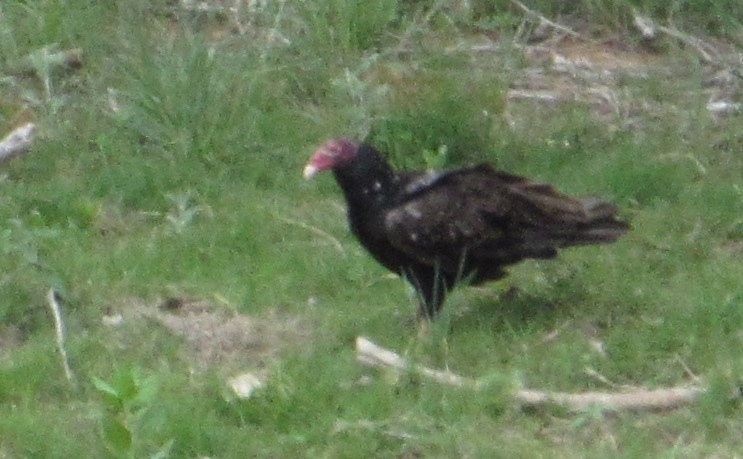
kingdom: Animalia
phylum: Chordata
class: Aves
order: Accipitriformes
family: Cathartidae
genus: Cathartes
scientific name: Cathartes aura
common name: Turkey vulture
